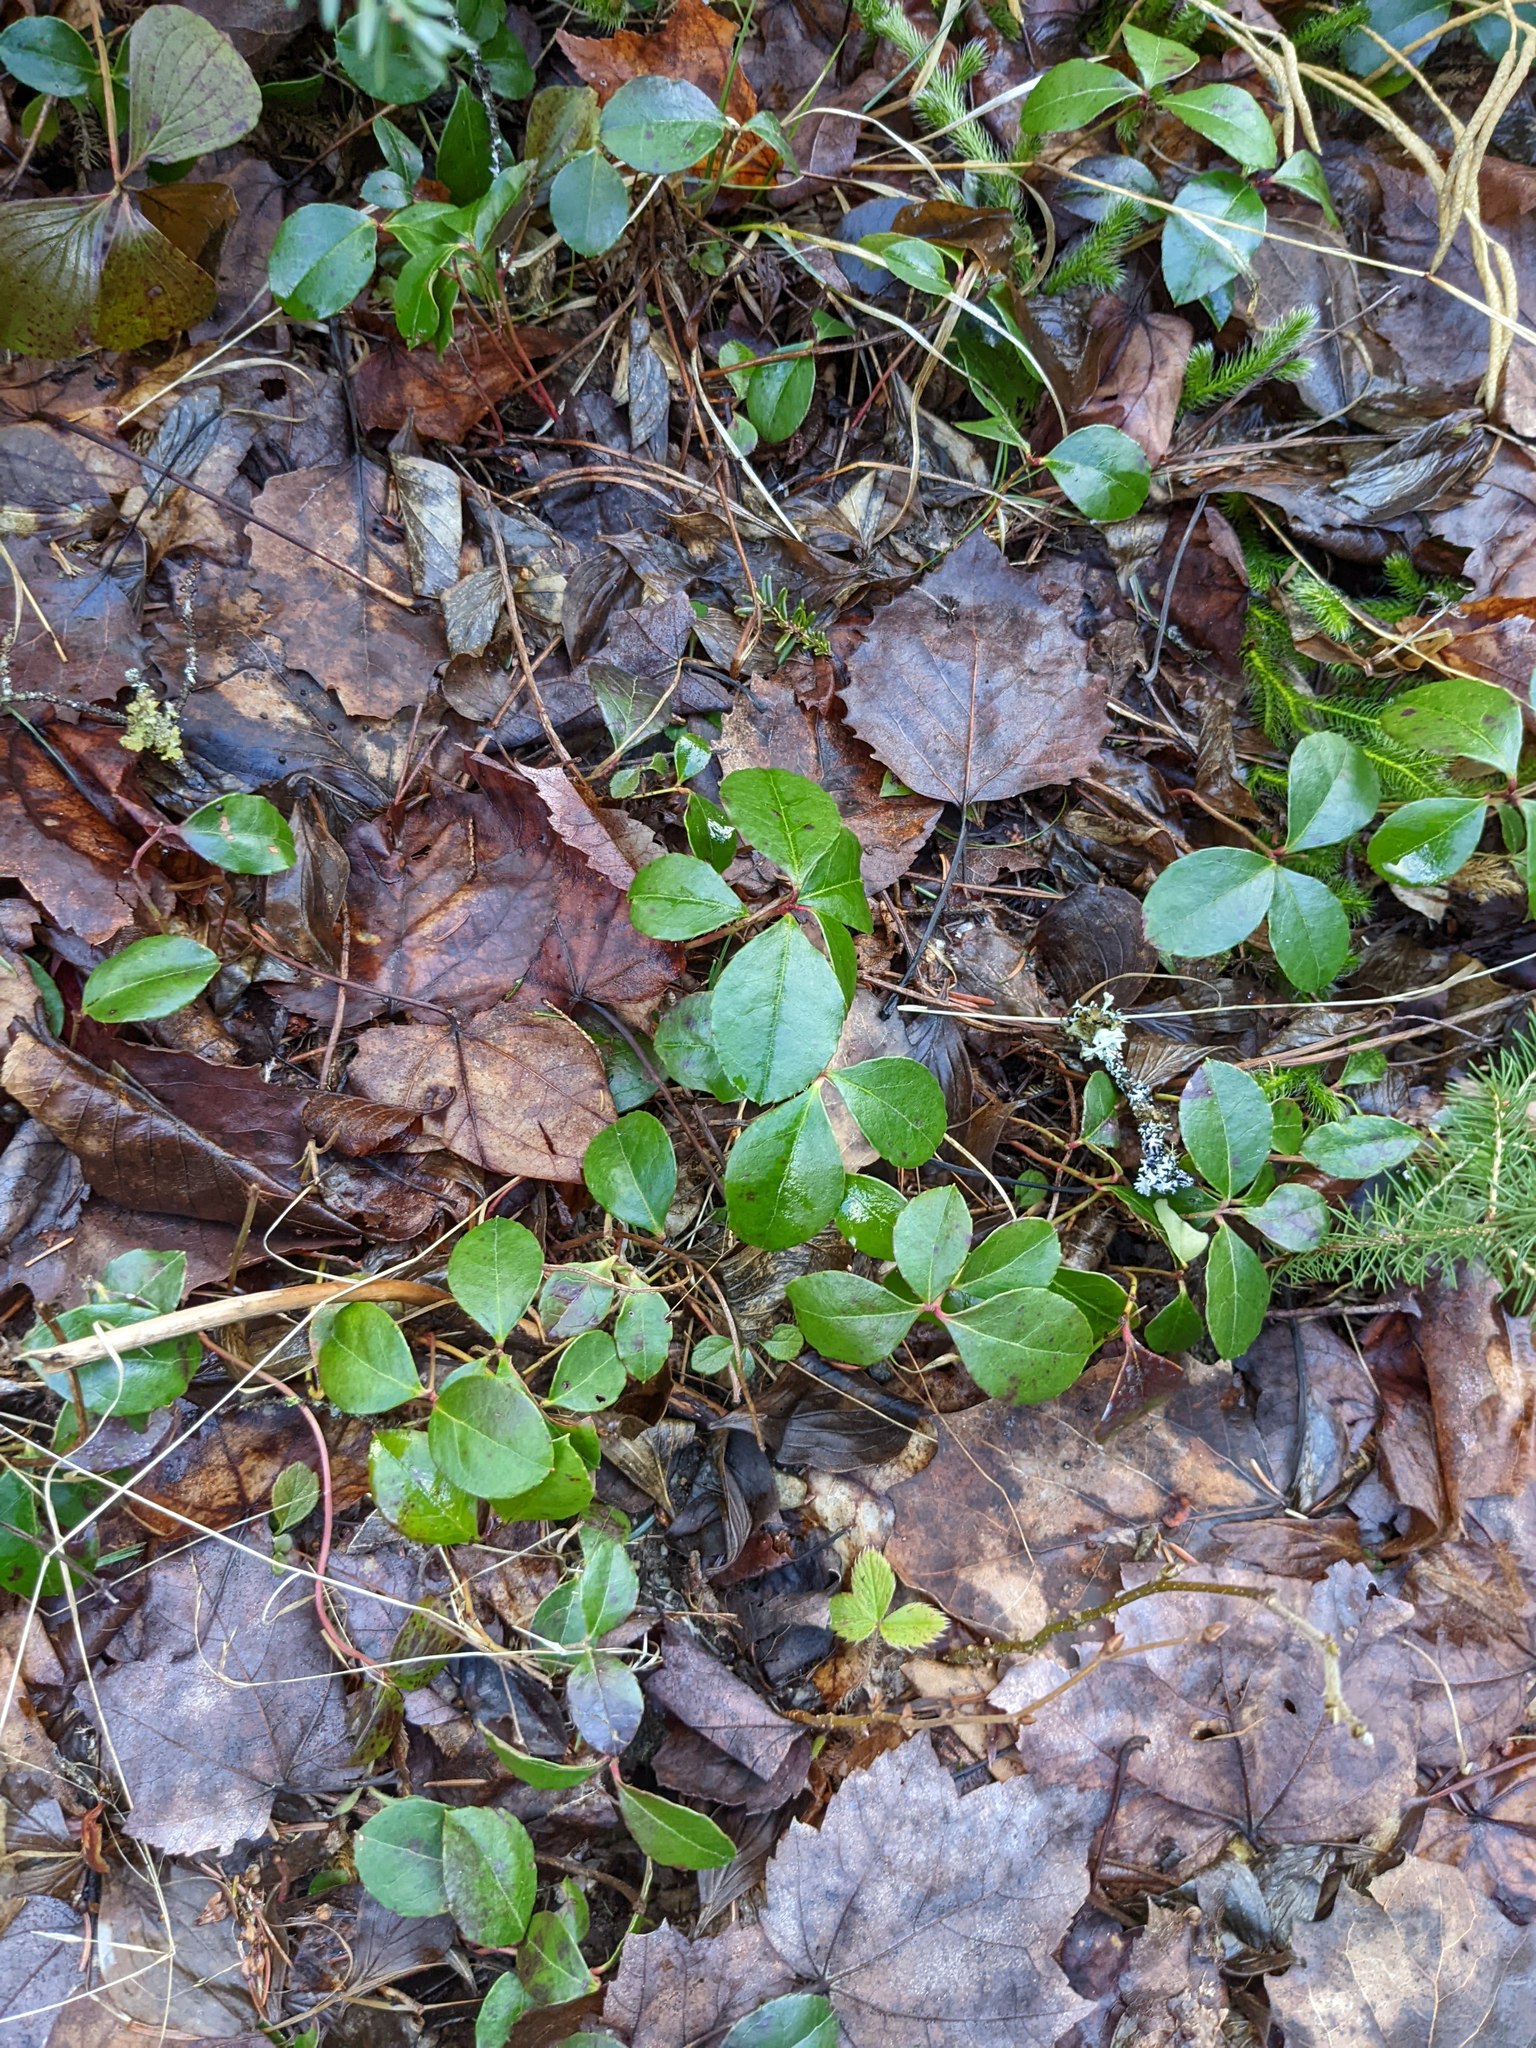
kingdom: Plantae
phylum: Tracheophyta
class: Magnoliopsida
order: Ericales
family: Ericaceae
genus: Gaultheria
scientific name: Gaultheria procumbens
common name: Checkerberry
